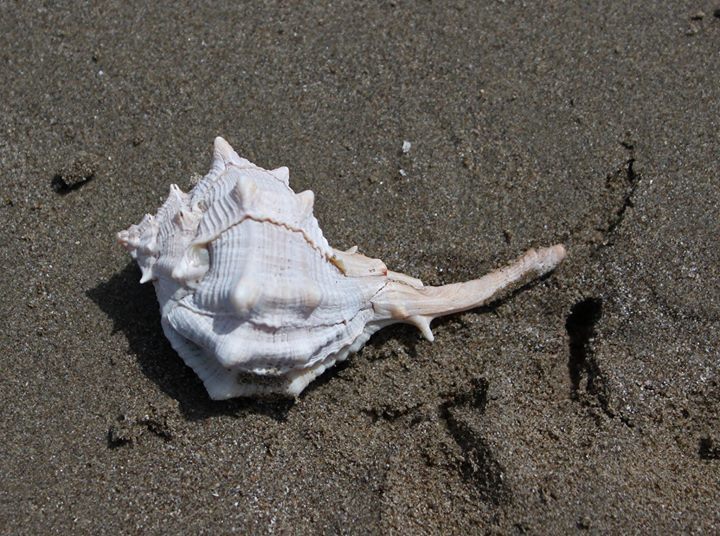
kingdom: Animalia
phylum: Mollusca
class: Gastropoda
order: Neogastropoda
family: Muricidae
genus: Bolinus
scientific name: Bolinus brandaris
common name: Dye murex
